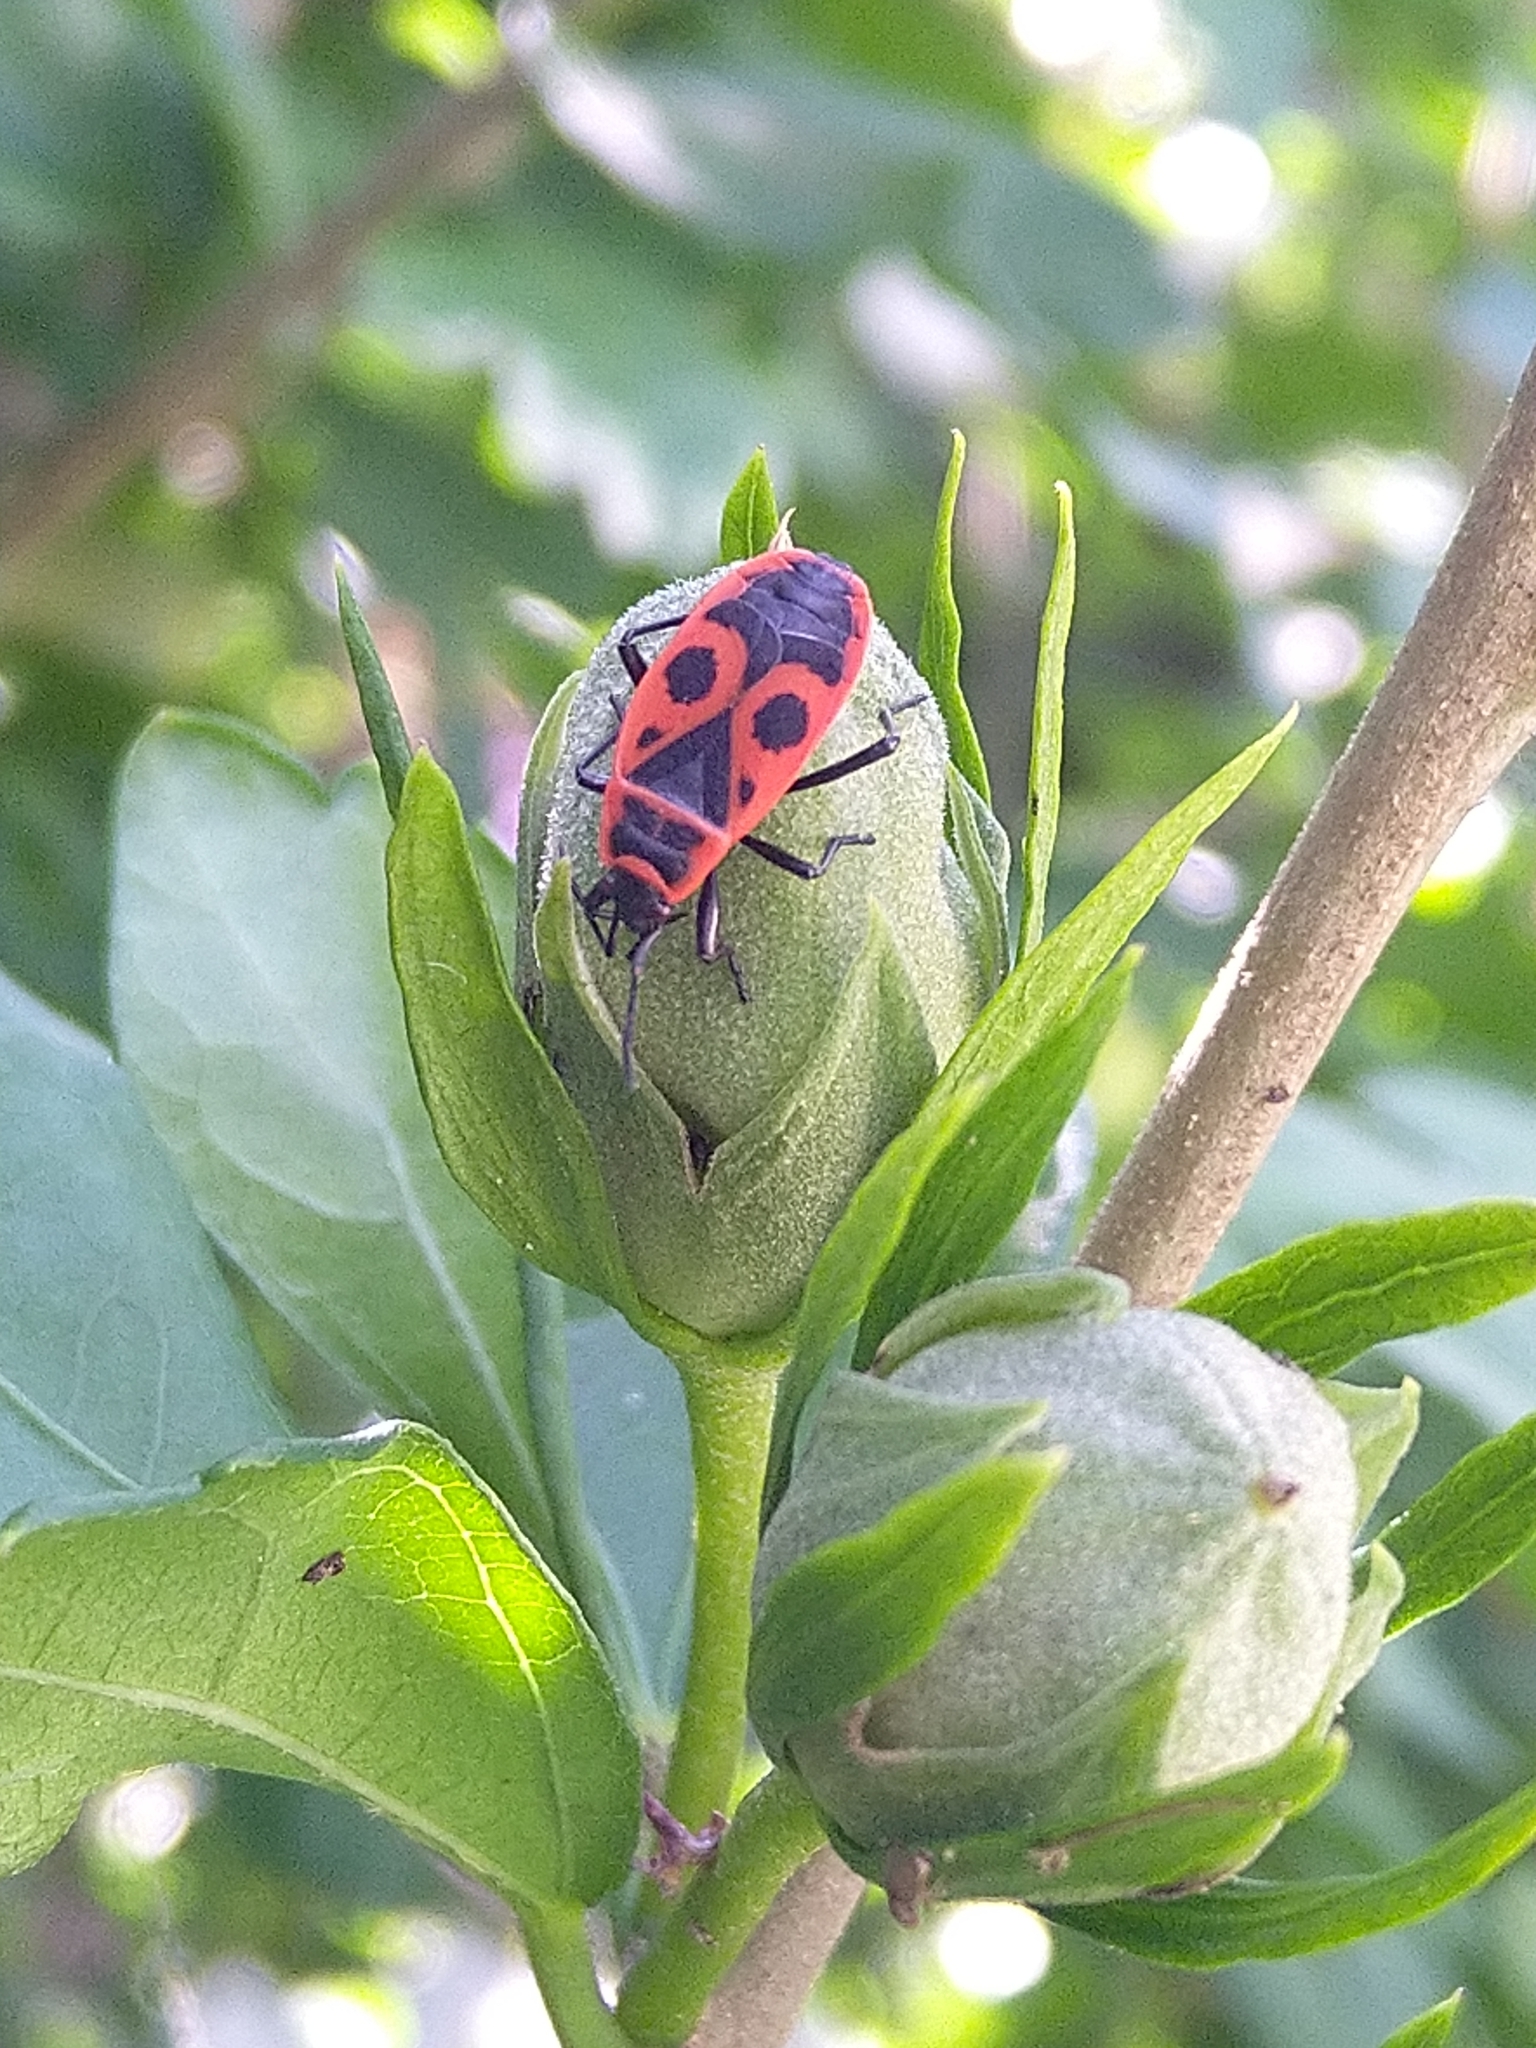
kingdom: Animalia
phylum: Arthropoda
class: Insecta
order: Hemiptera
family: Pyrrhocoridae
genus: Pyrrhocoris
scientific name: Pyrrhocoris apterus
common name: Firebug
